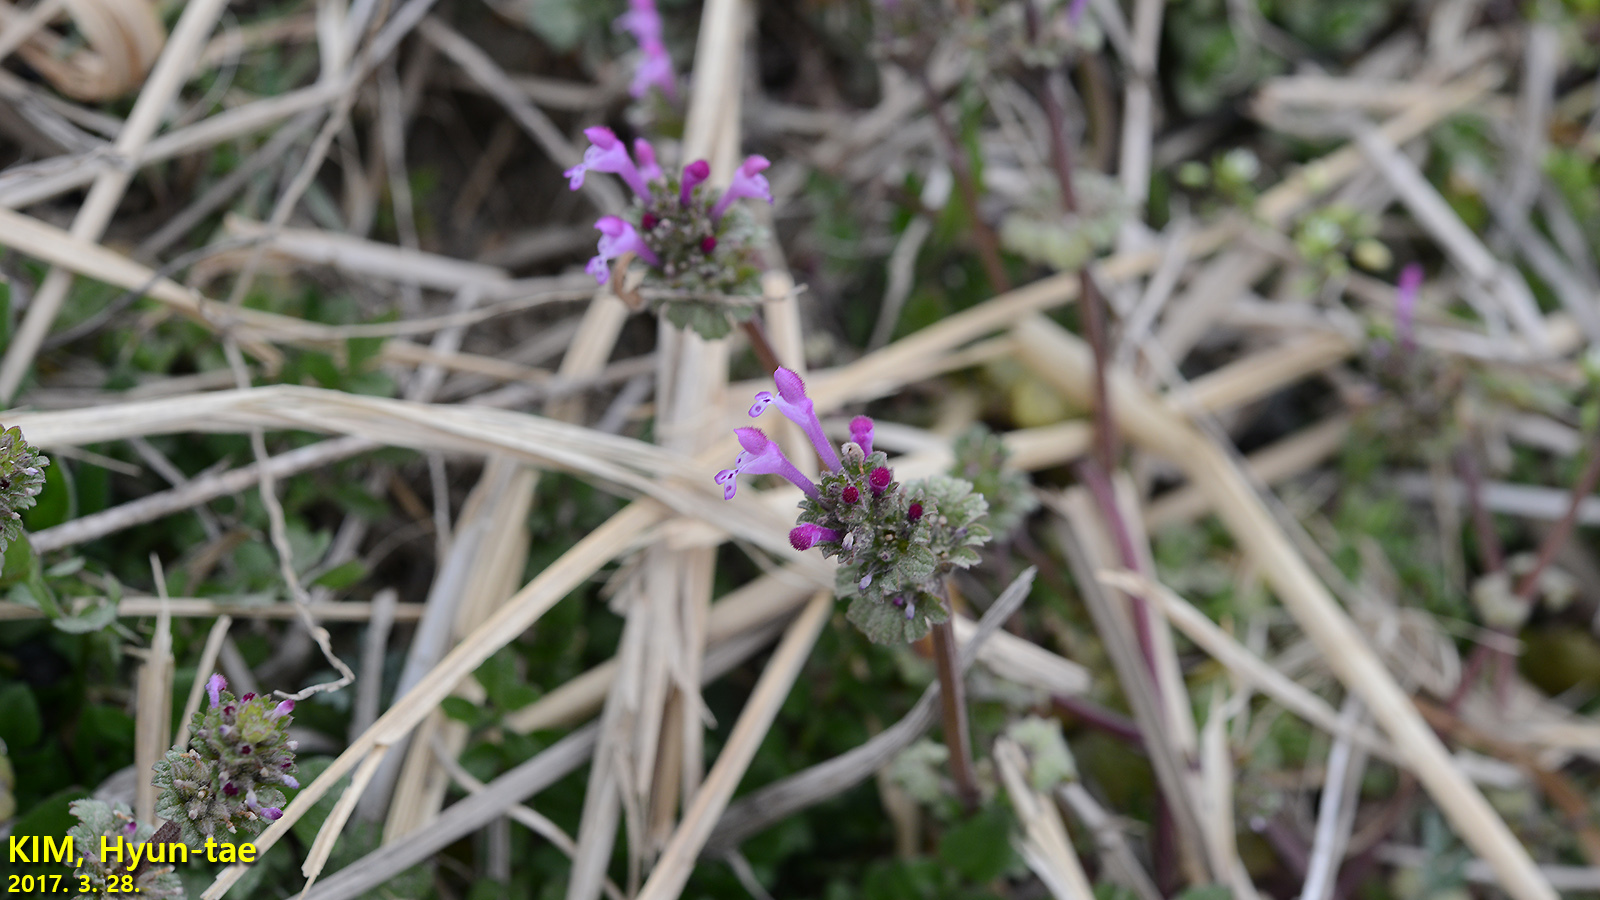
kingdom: Plantae
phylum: Tracheophyta
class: Magnoliopsida
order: Lamiales
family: Lamiaceae
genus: Lamium
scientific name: Lamium amplexicaule
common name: Henbit dead-nettle
